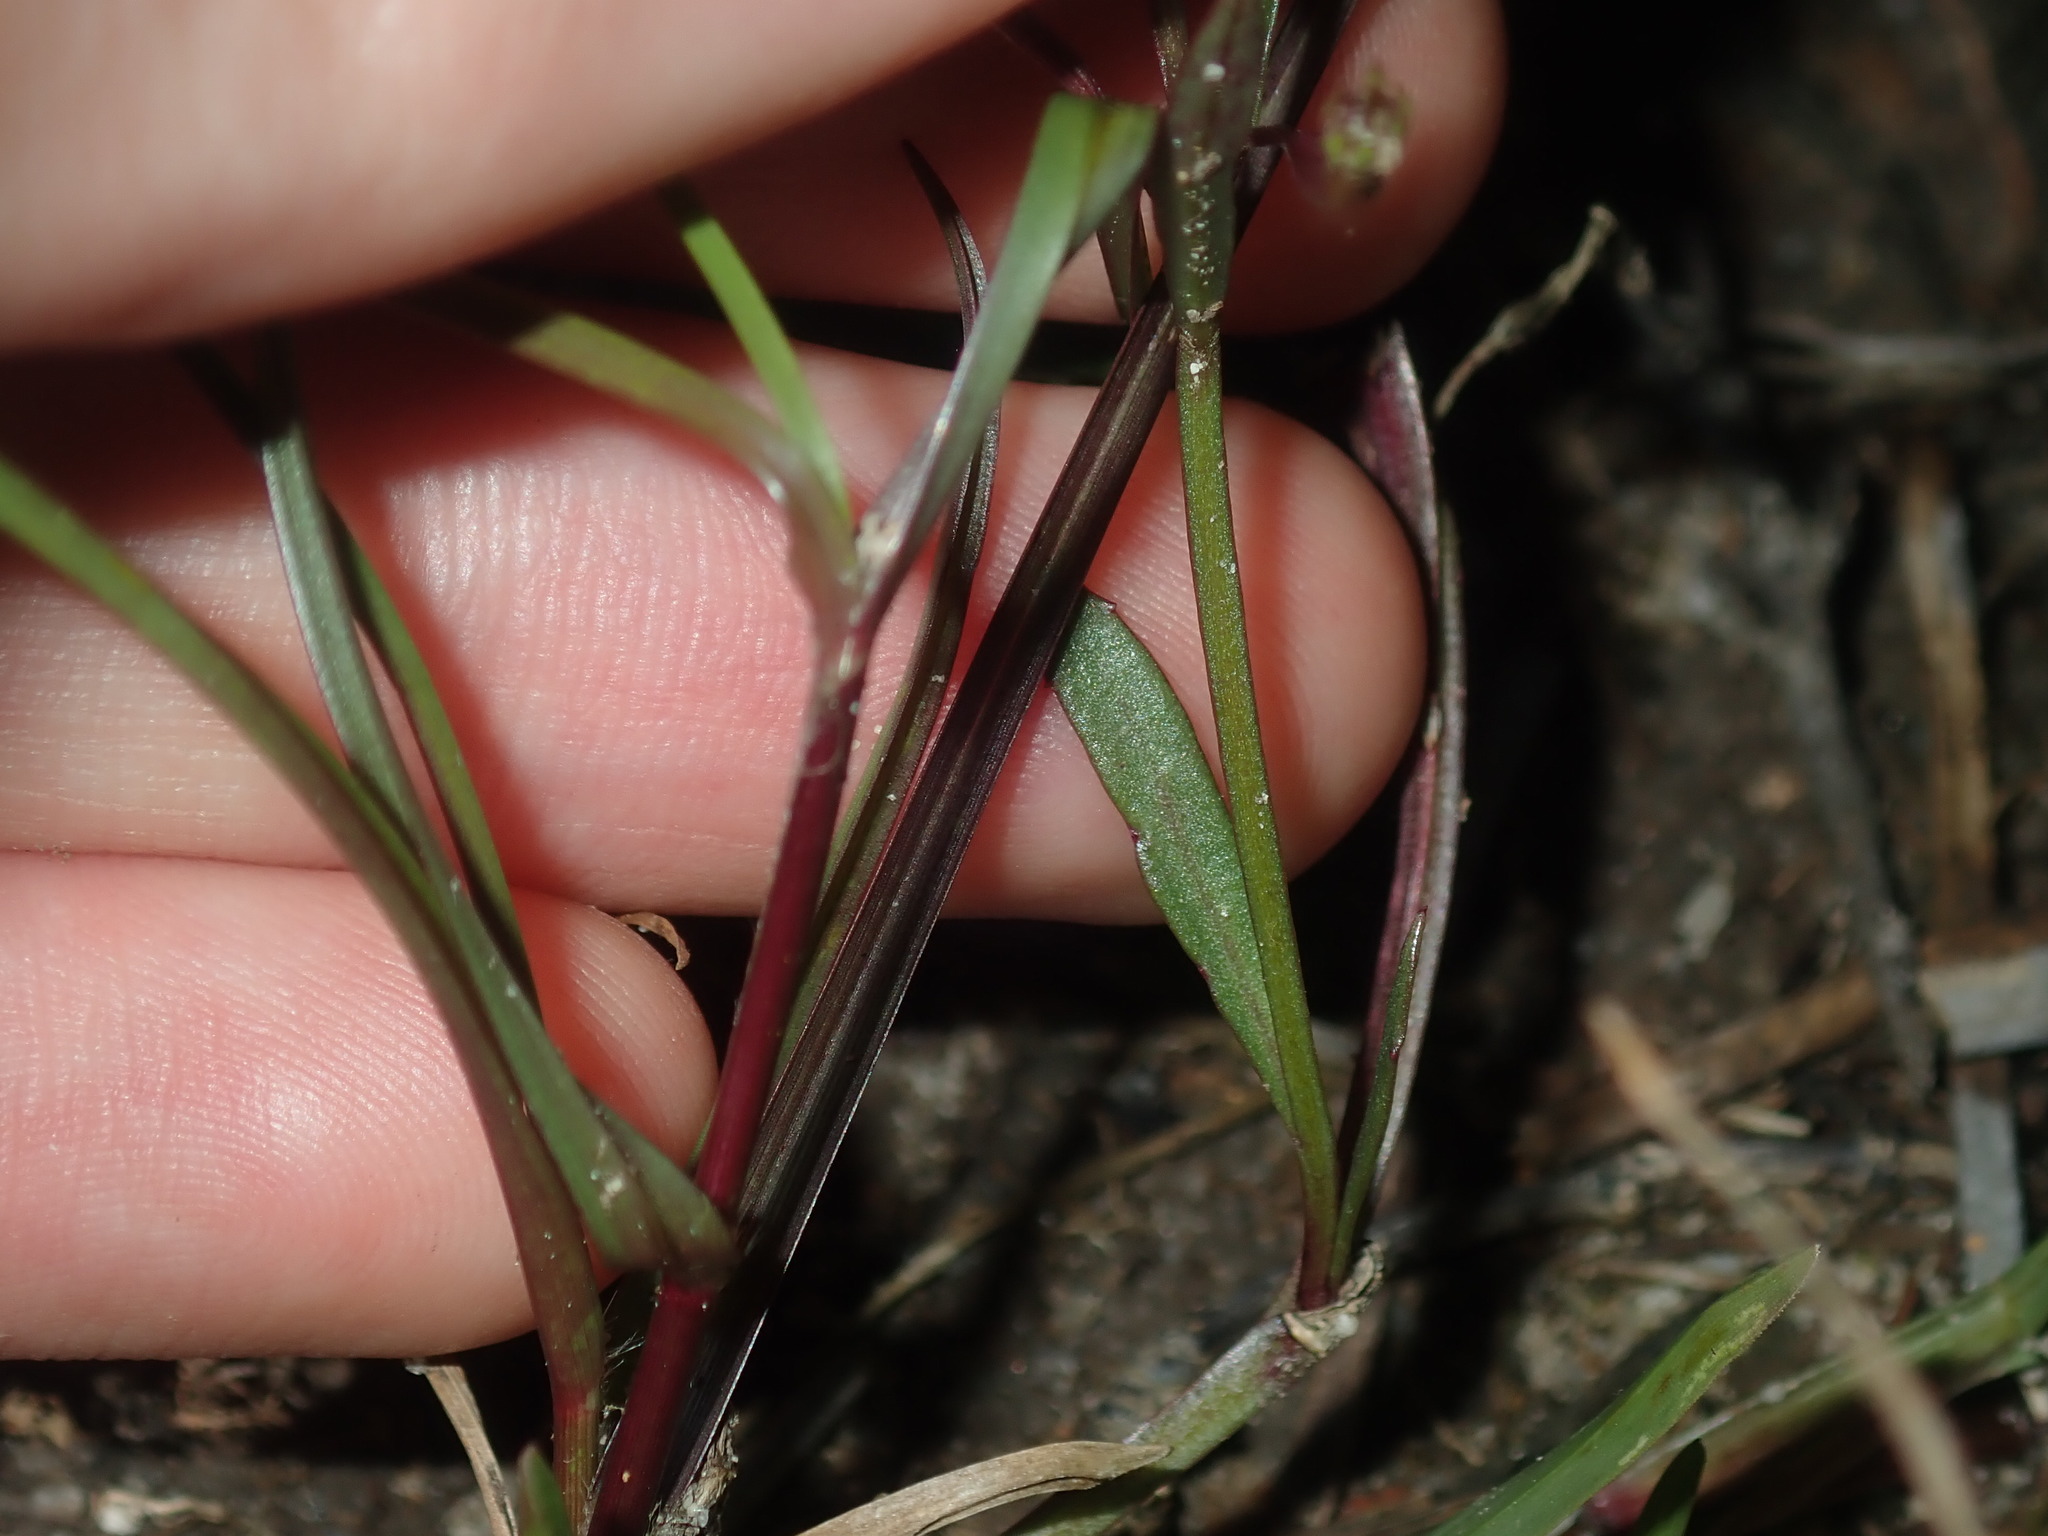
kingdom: Plantae
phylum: Tracheophyta
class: Magnoliopsida
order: Asterales
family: Campanulaceae
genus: Lobelia
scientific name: Lobelia anceps
